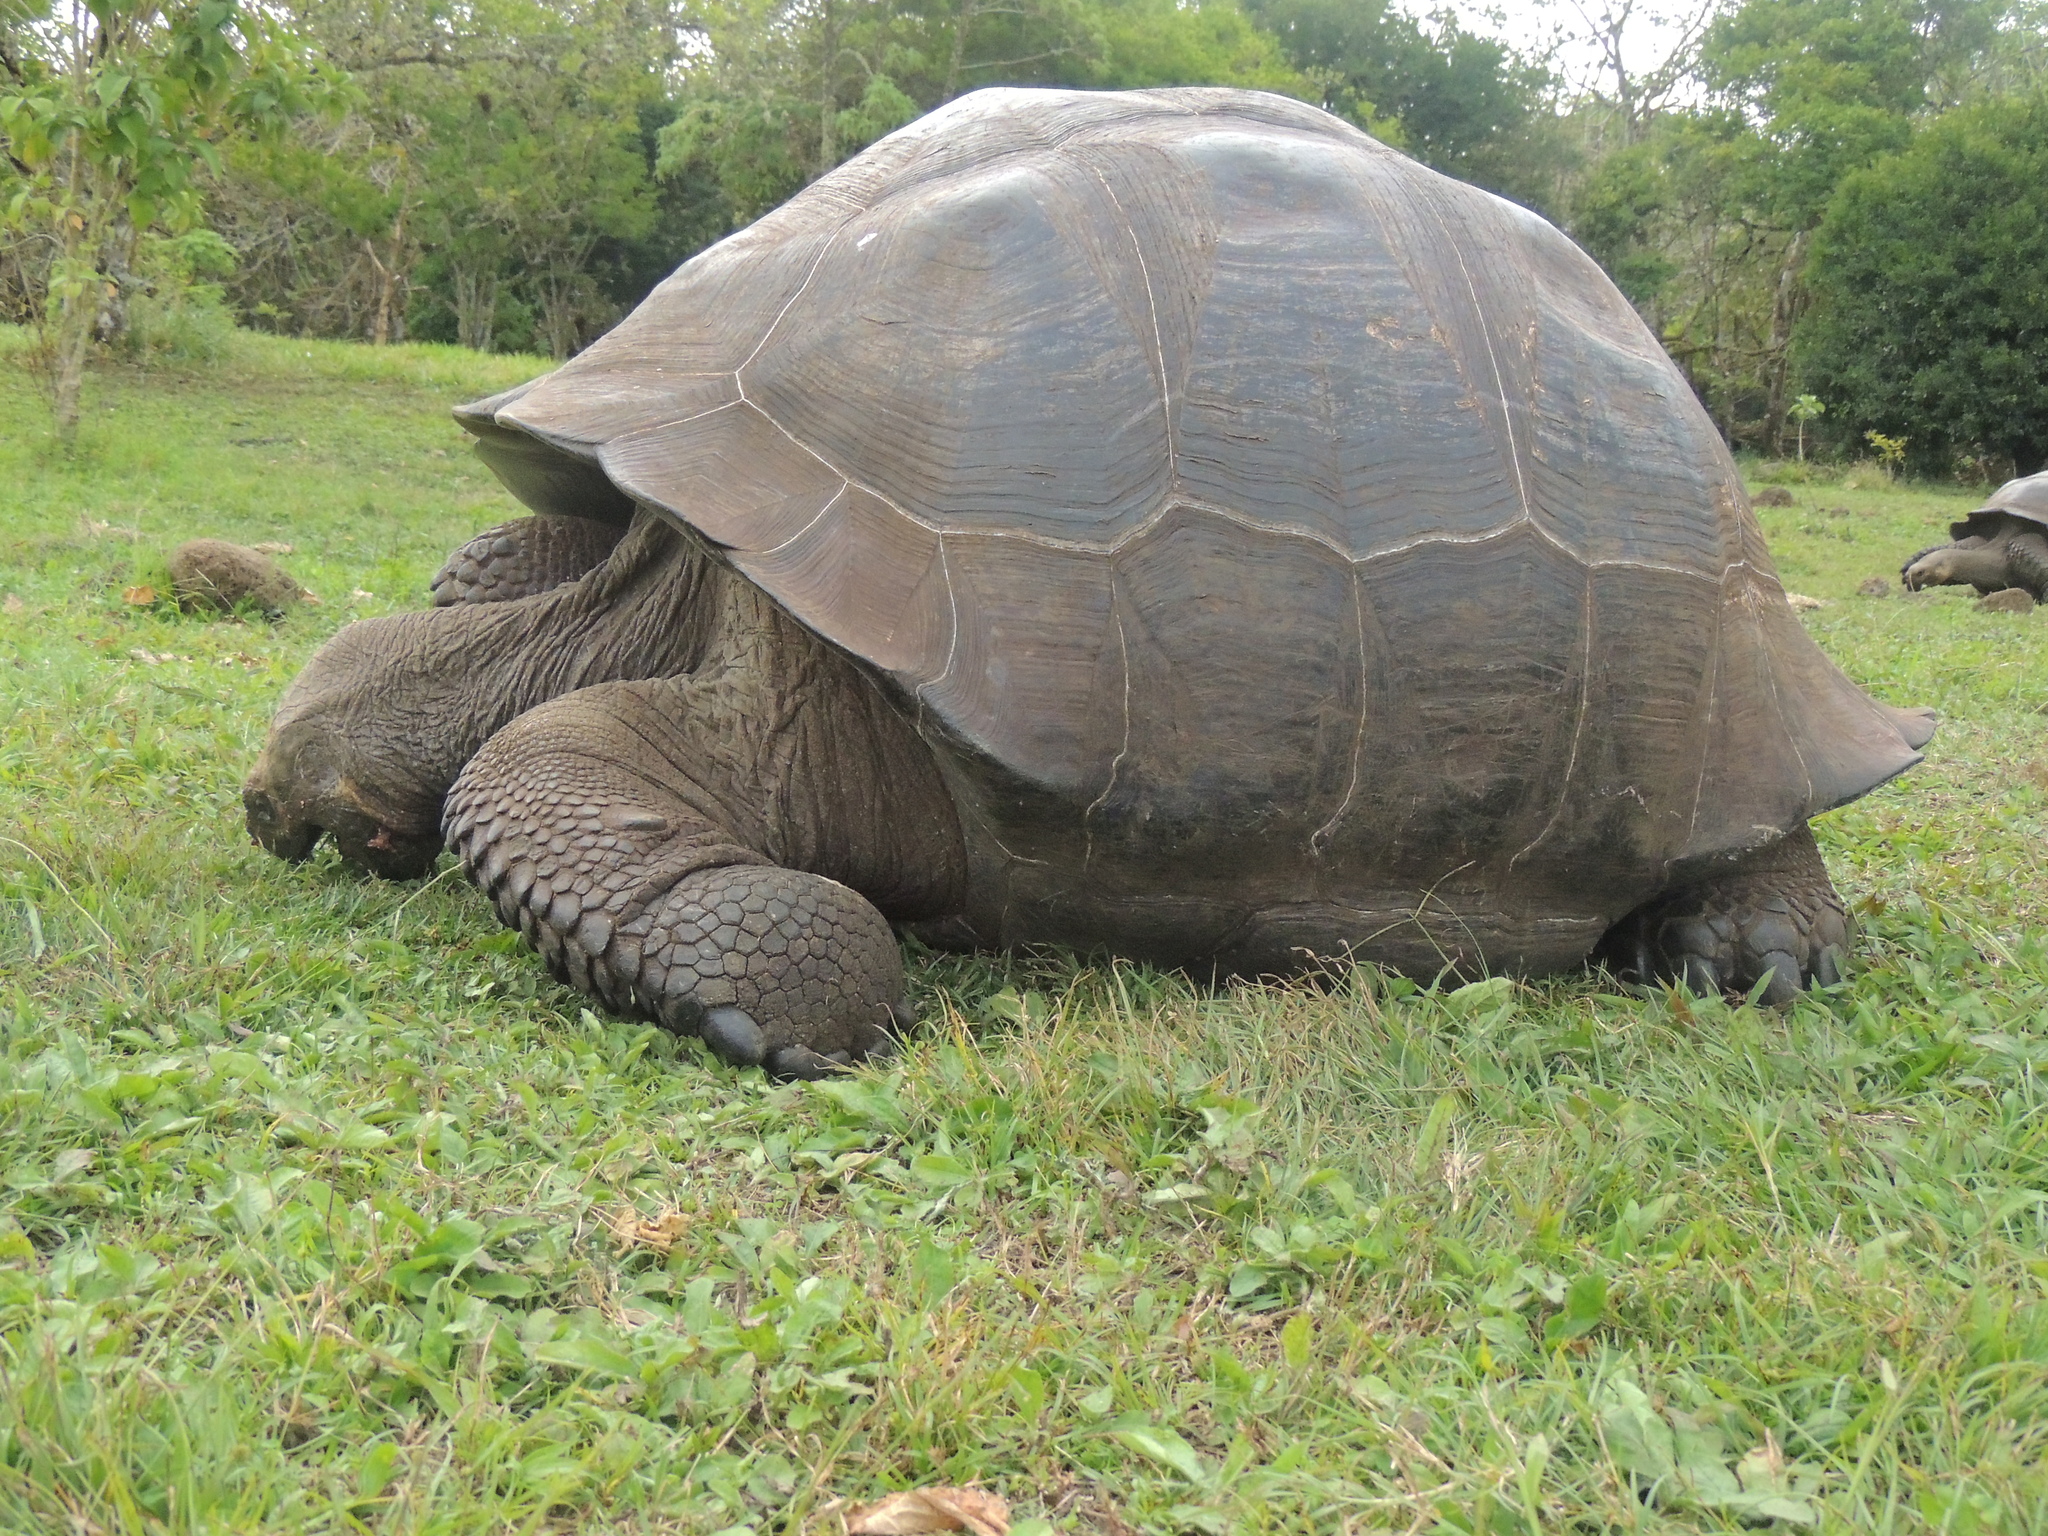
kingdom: Animalia
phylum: Chordata
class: Testudines
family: Testudinidae
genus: Chelonoidis
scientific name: Chelonoidis porteri
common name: Indefatigable island giant tortoise
